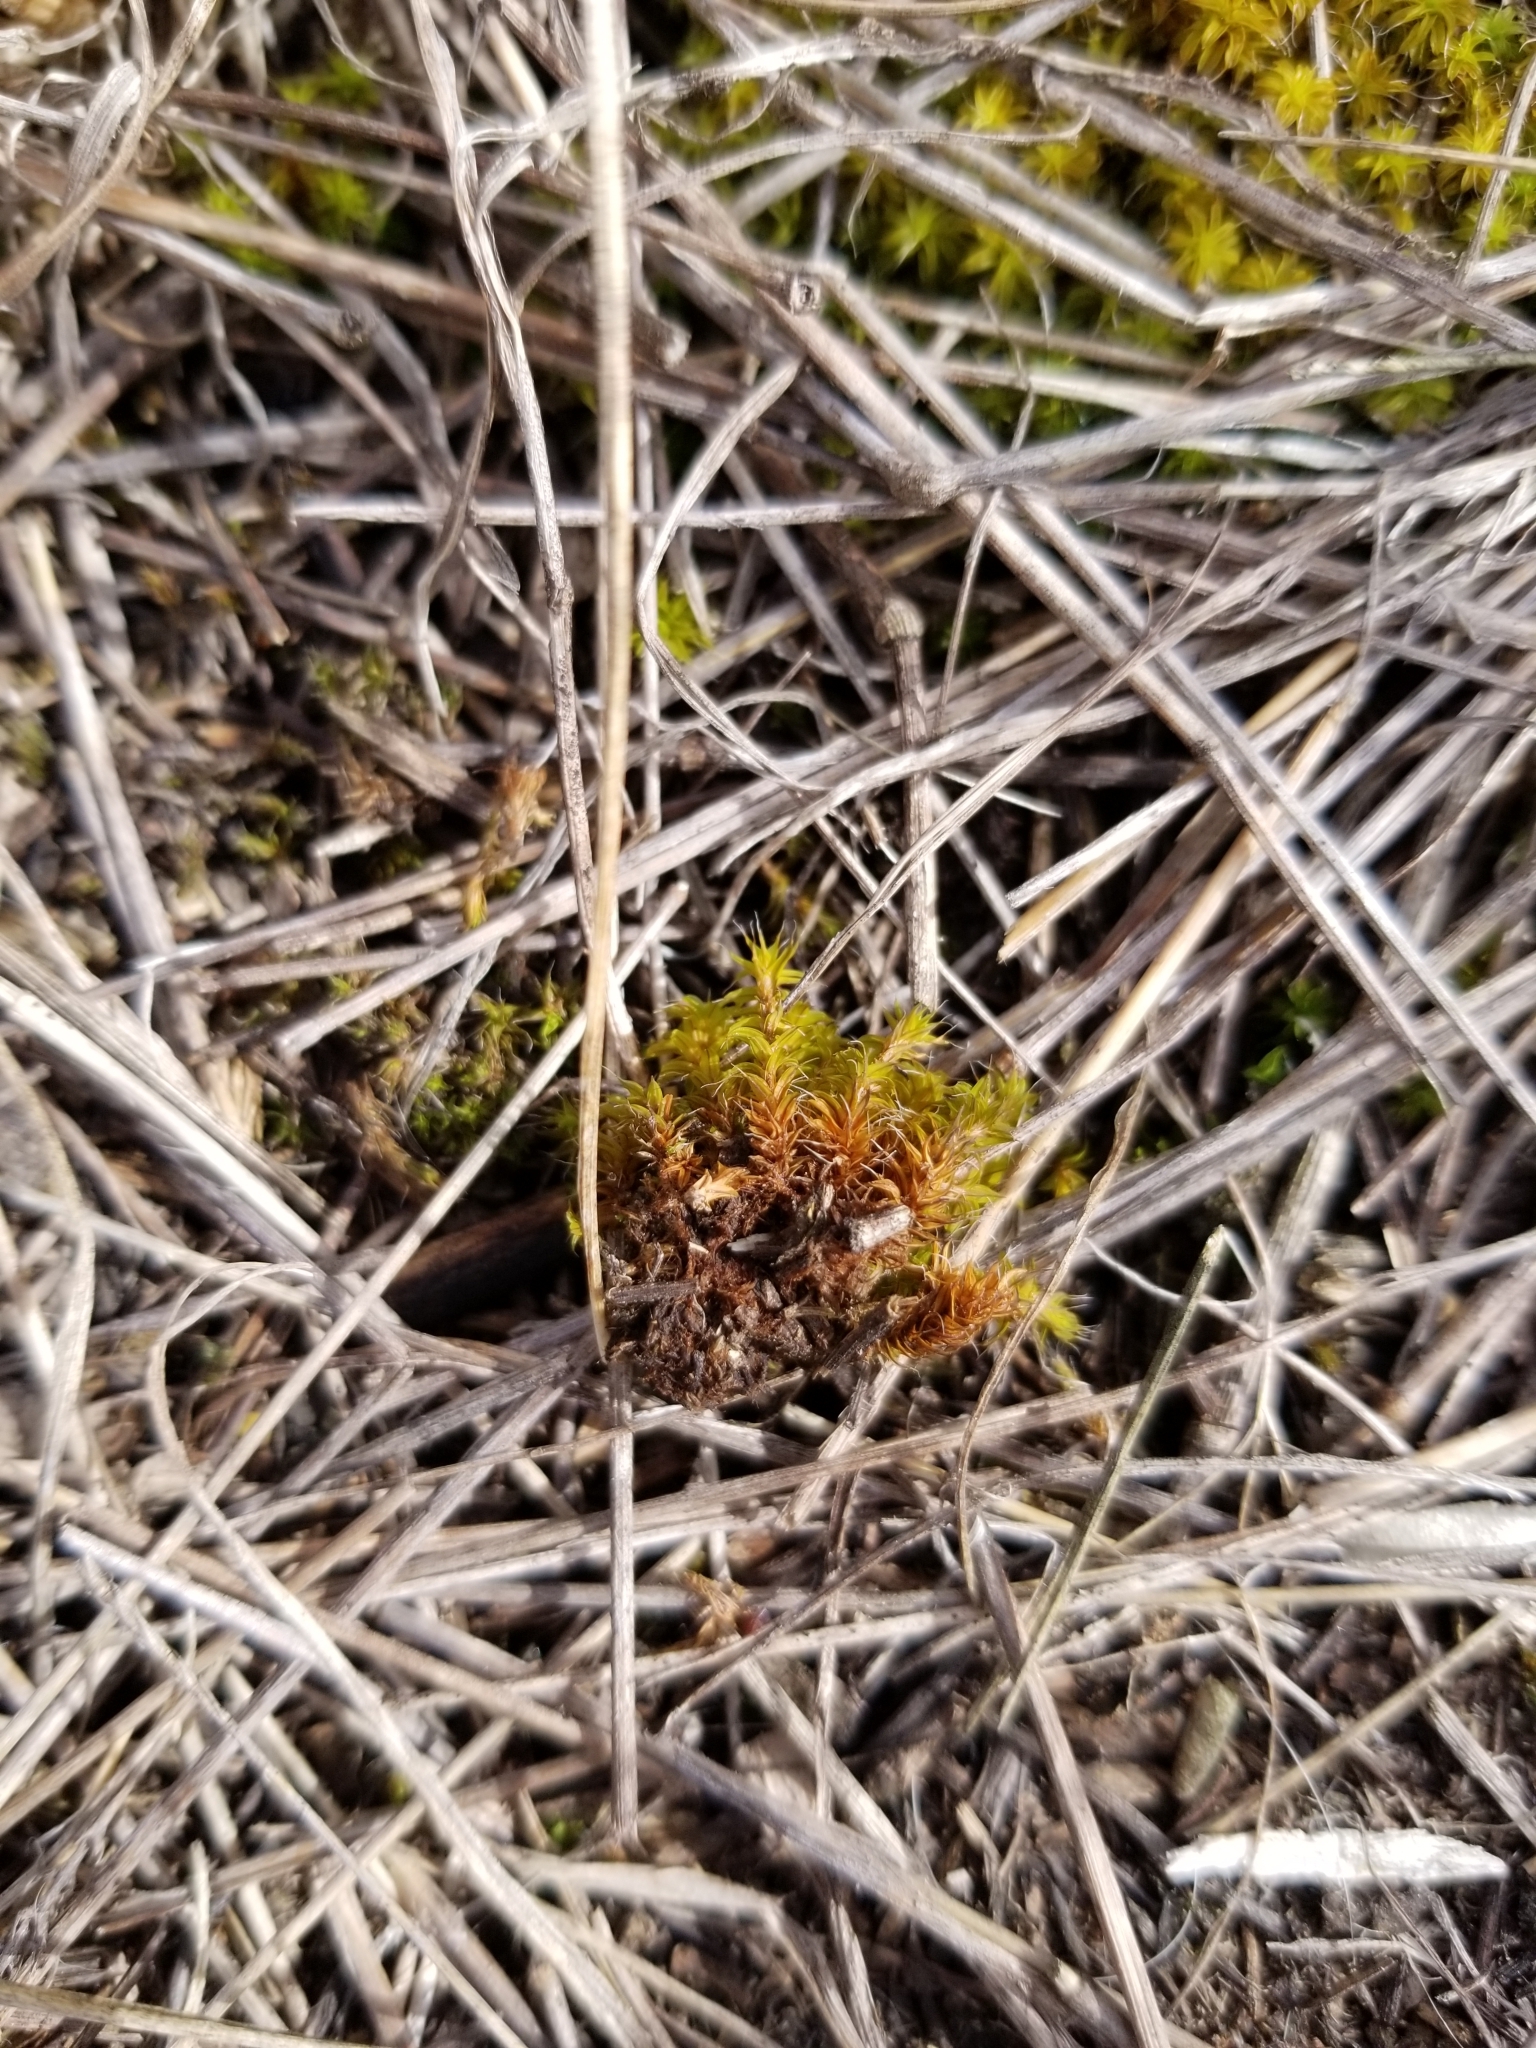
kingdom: Plantae
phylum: Bryophyta
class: Bryopsida
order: Pottiales
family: Pottiaceae
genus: Syntrichia
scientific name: Syntrichia ruralis
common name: Sidewalk screw moss
